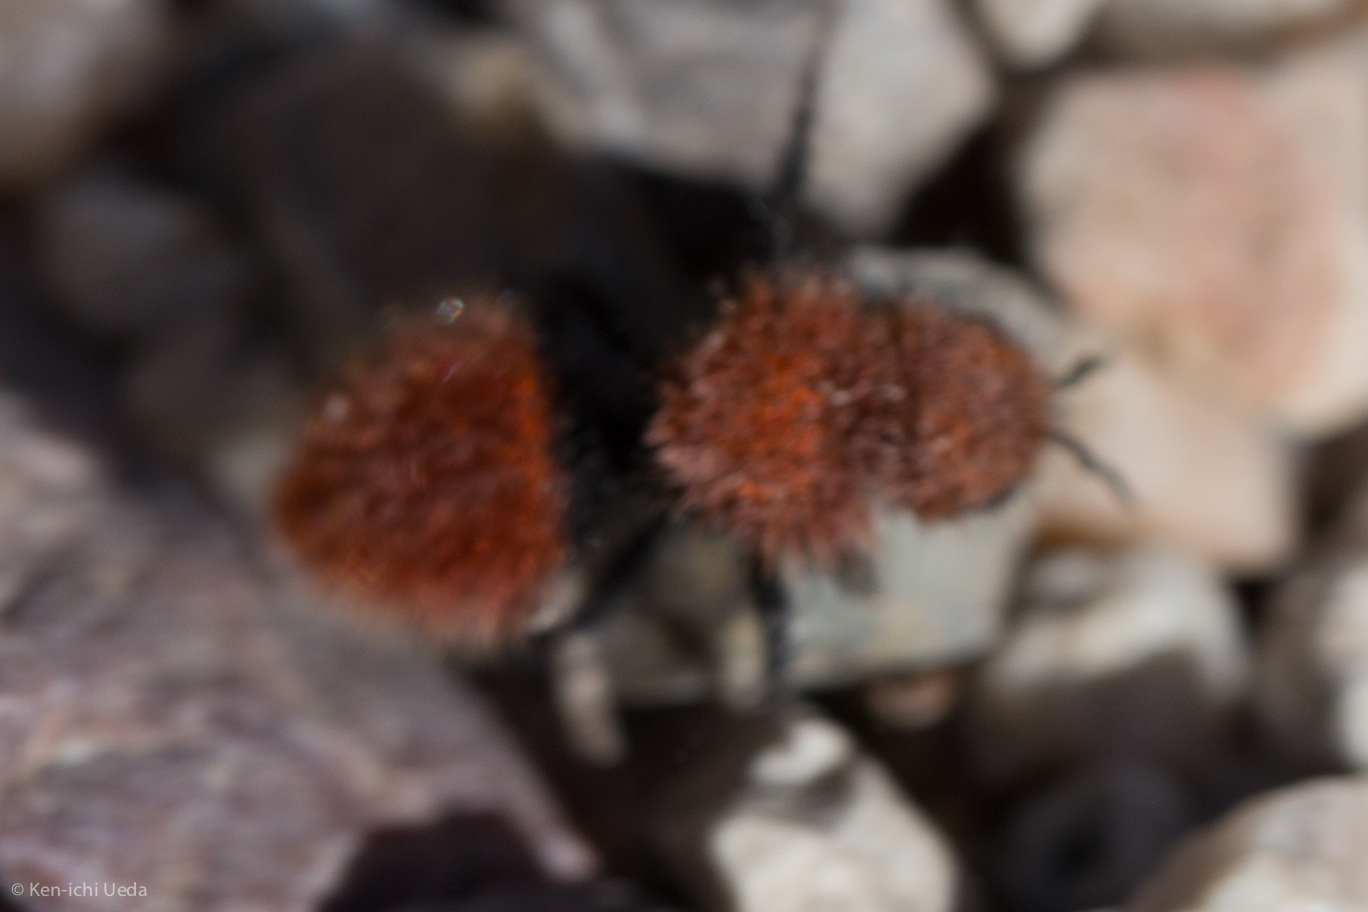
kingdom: Animalia
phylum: Arthropoda
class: Insecta
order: Hymenoptera
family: Mutillidae
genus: Dasymutilla
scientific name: Dasymutilla
